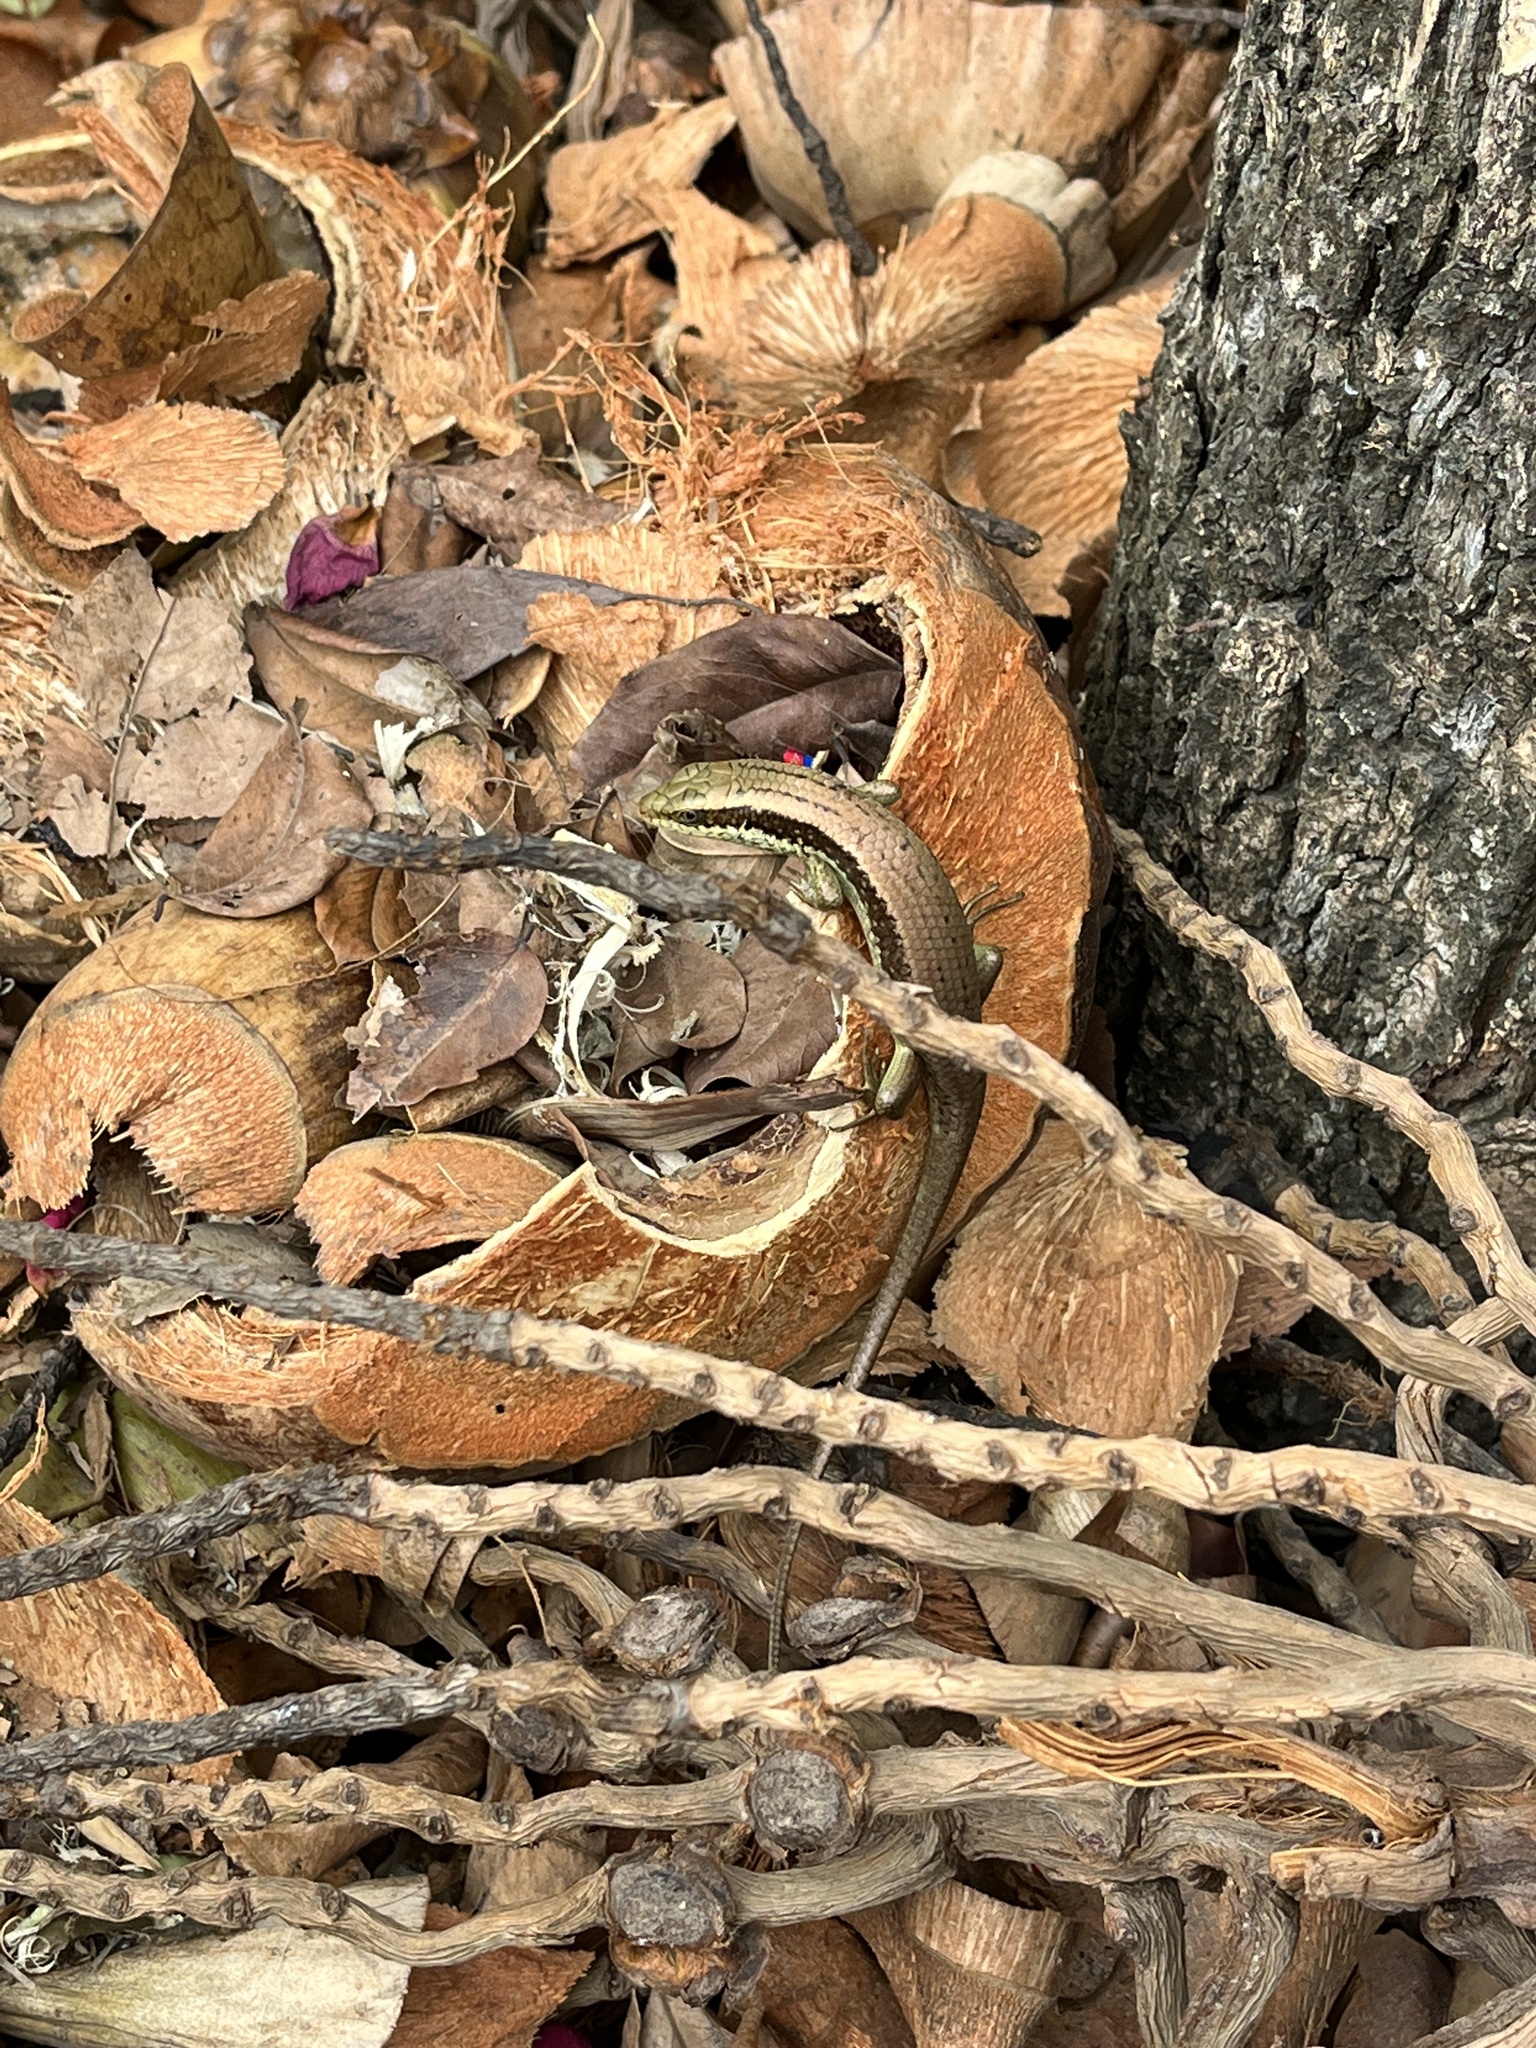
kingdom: Animalia
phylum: Chordata
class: Squamata
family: Scincidae
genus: Eutropis
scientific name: Eutropis longicaudata
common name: Long-tailed sun skink
